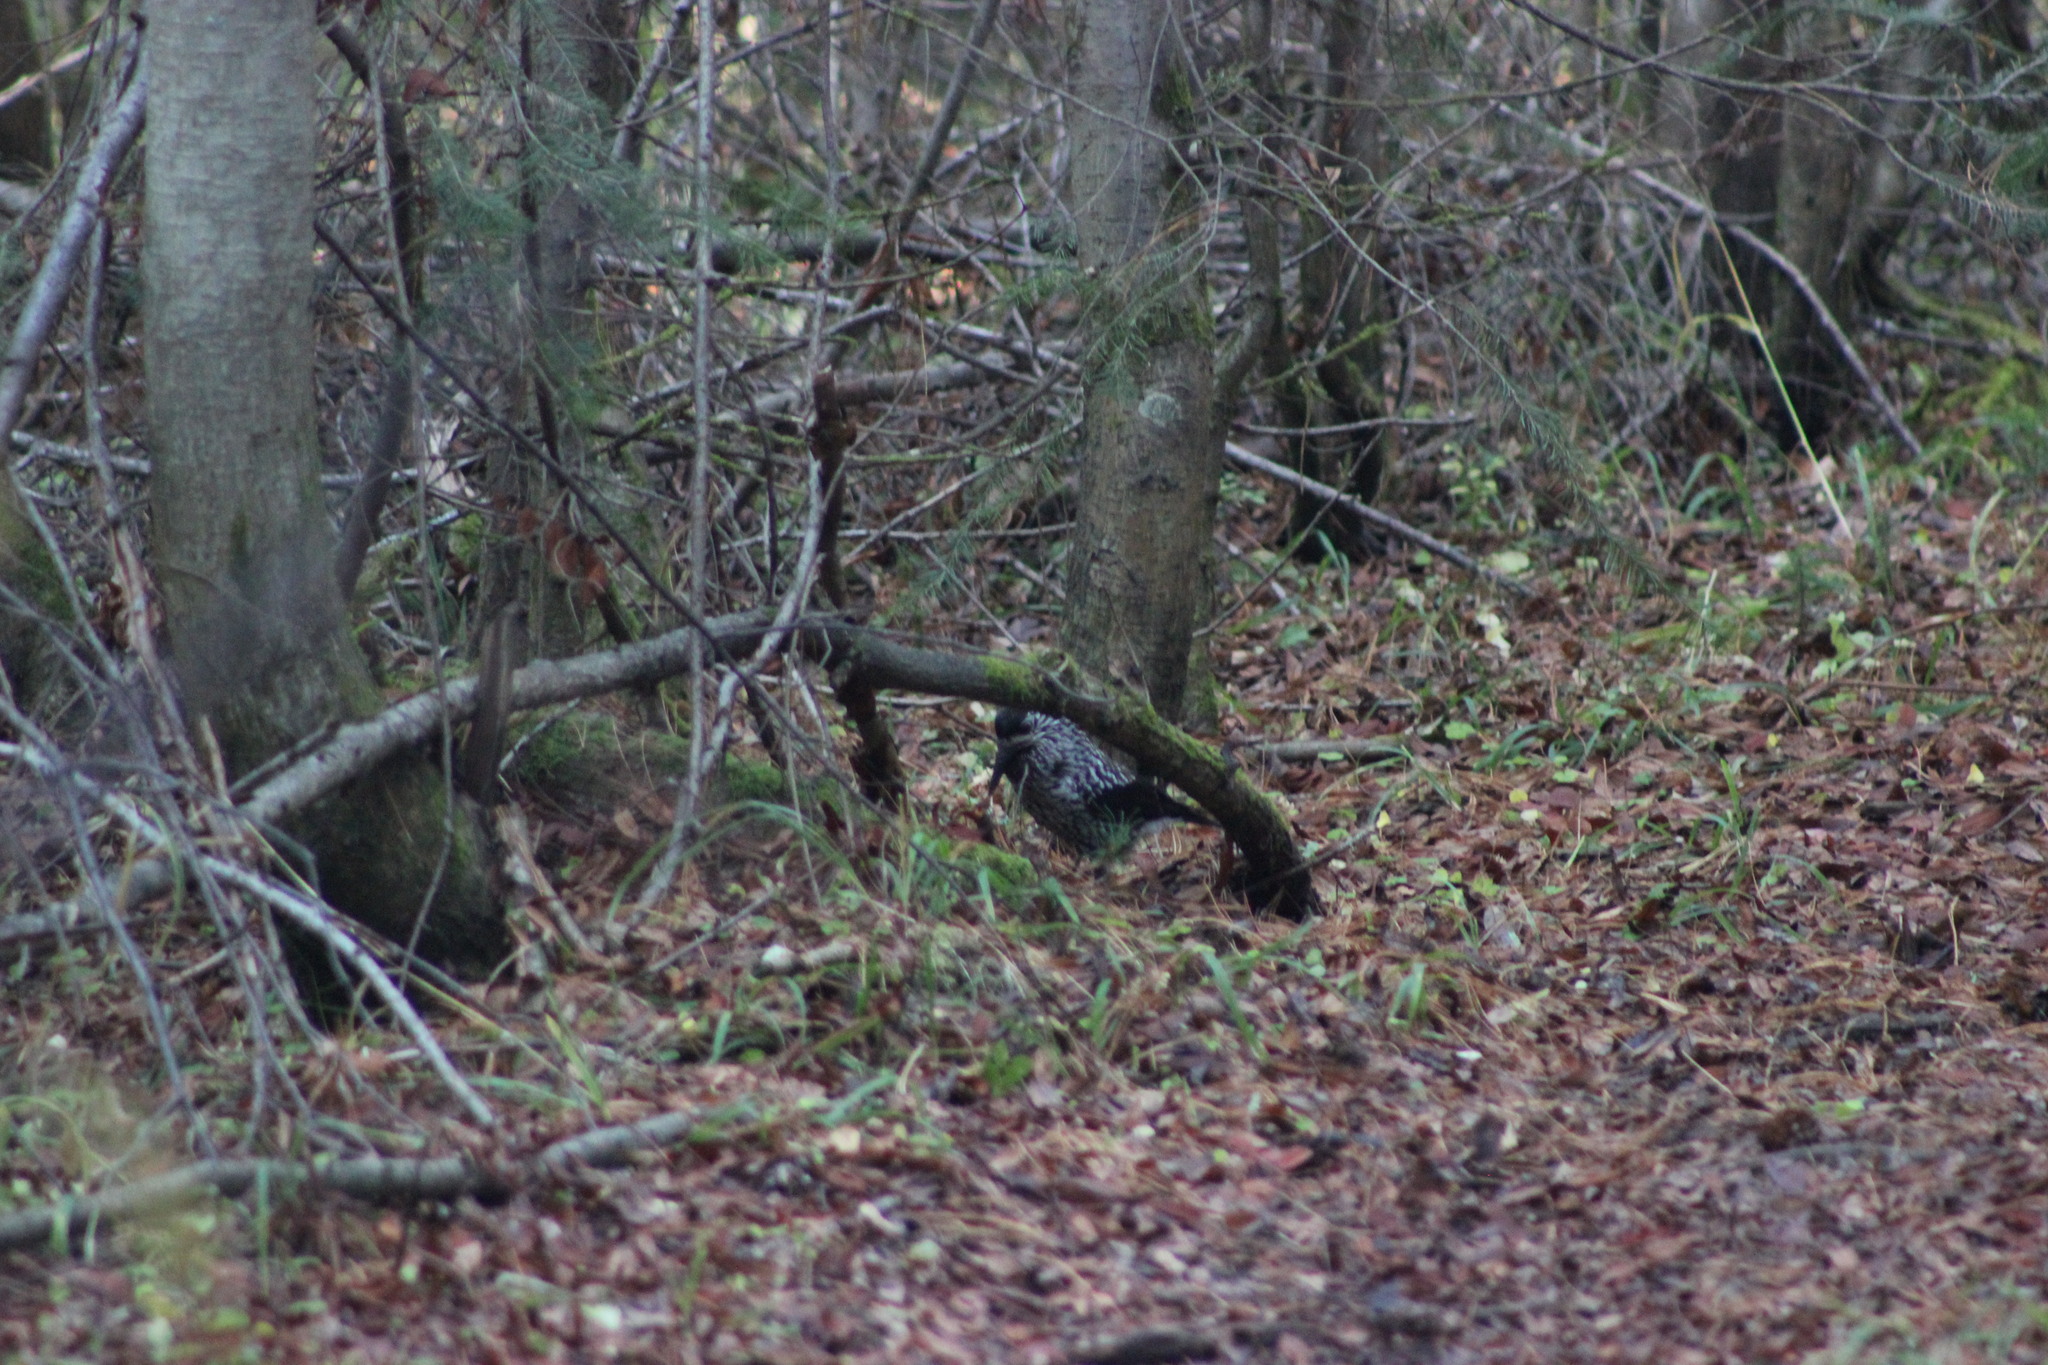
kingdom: Animalia
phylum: Chordata
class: Aves
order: Passeriformes
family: Corvidae
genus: Nucifraga
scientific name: Nucifraga caryocatactes
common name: Spotted nutcracker
